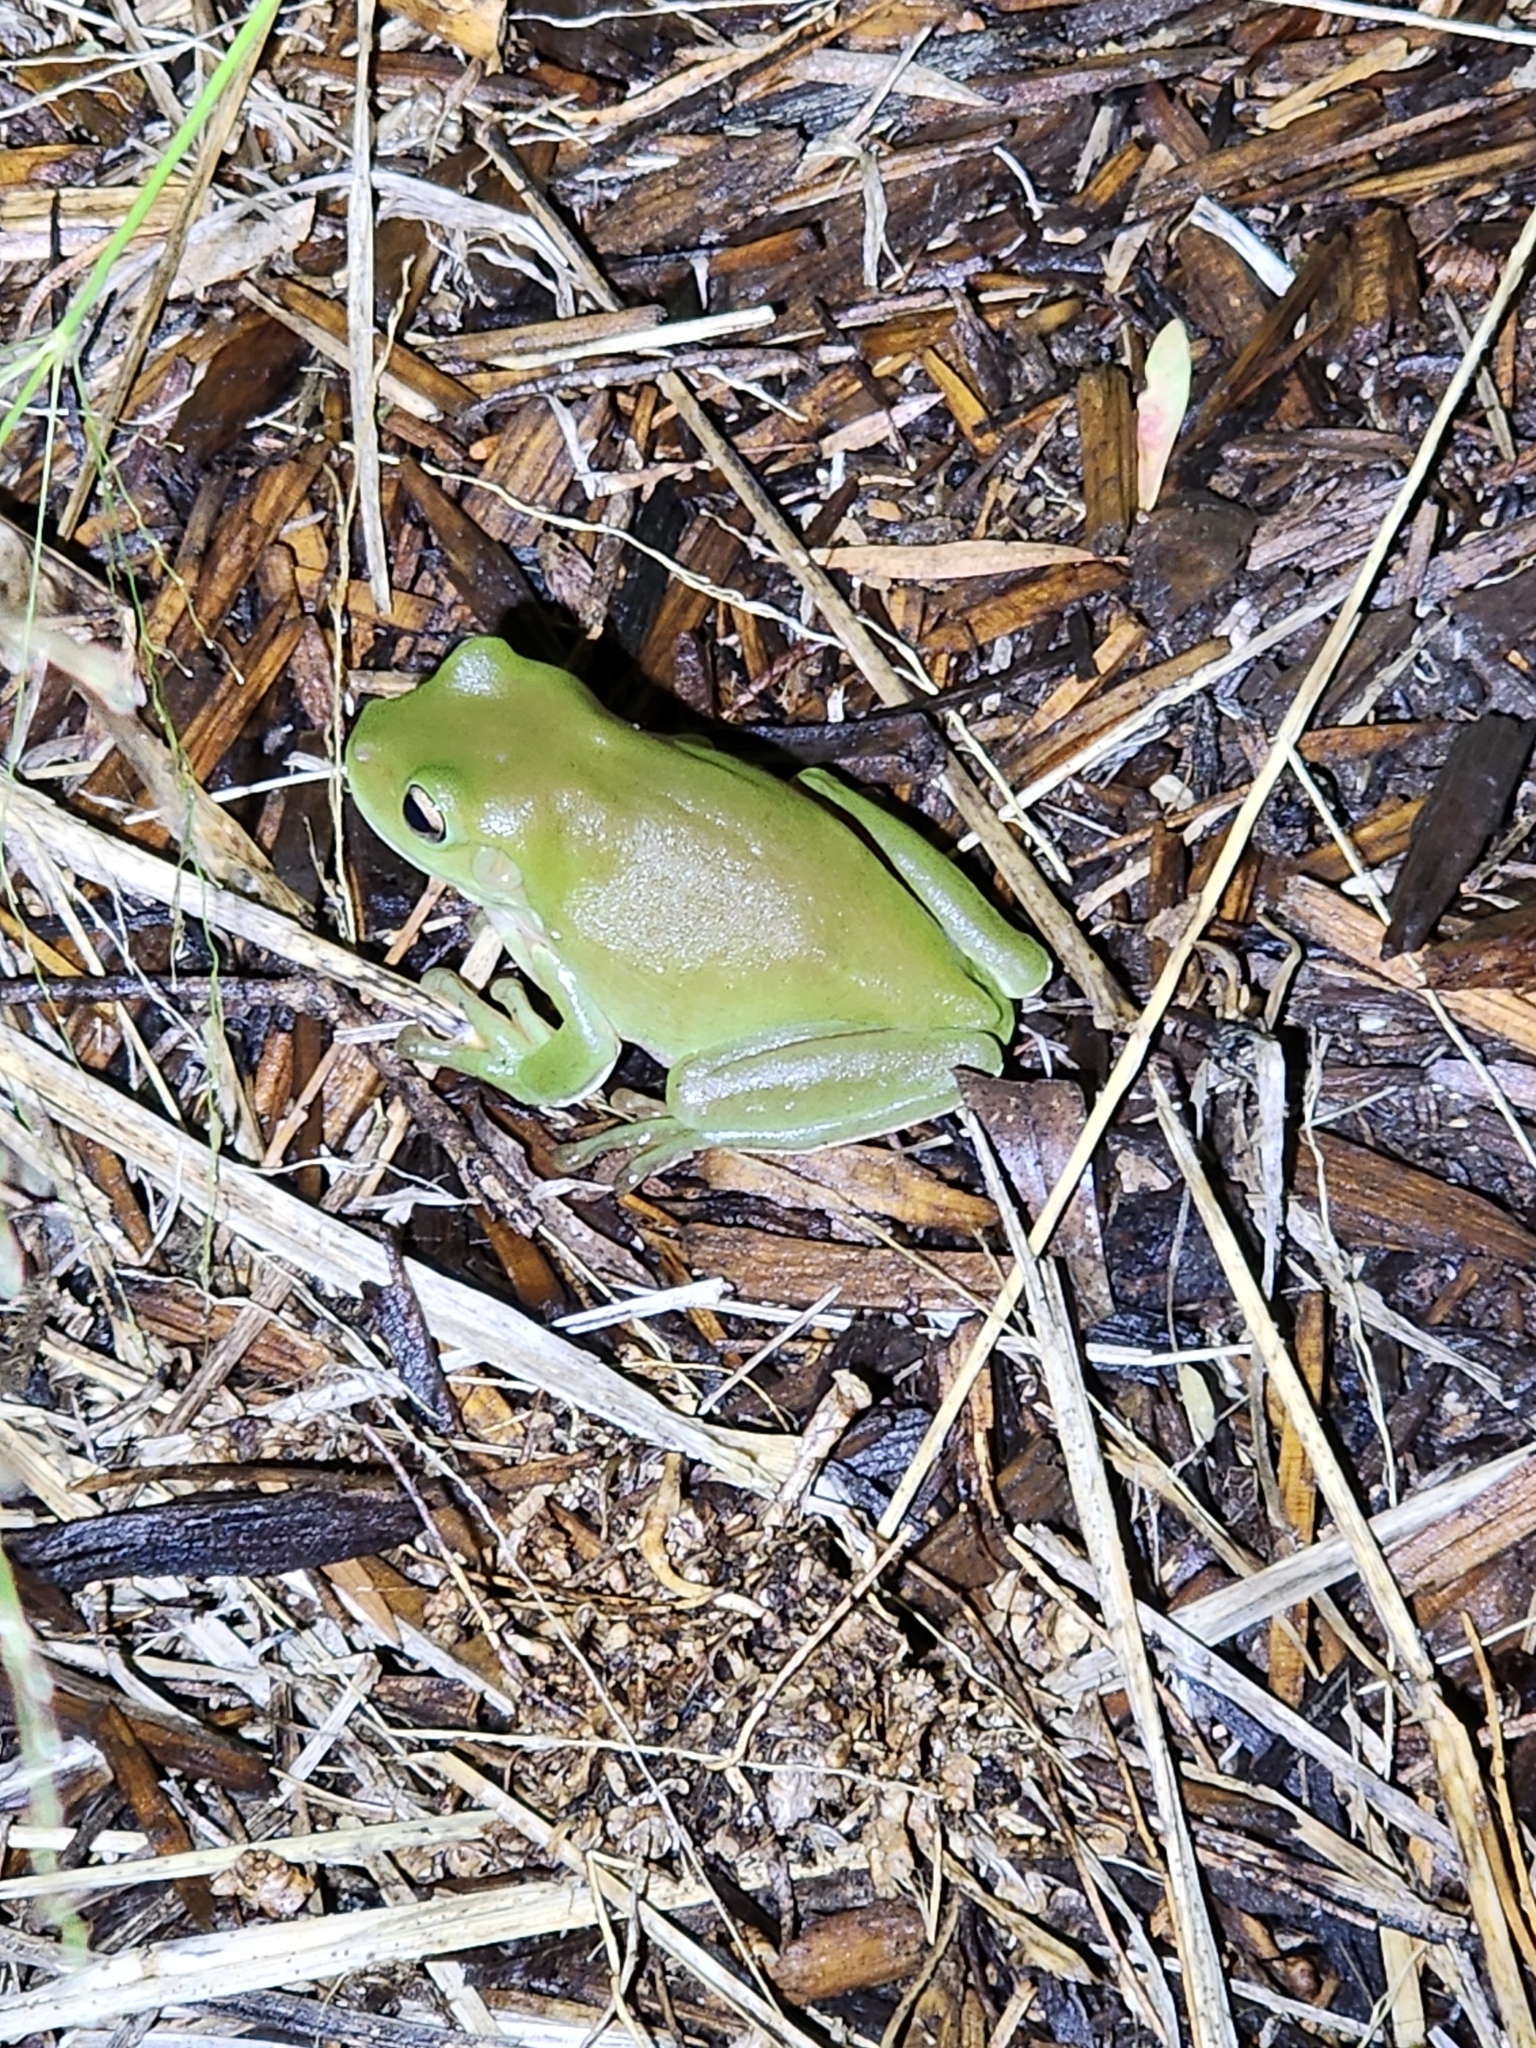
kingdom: Animalia
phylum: Chordata
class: Amphibia
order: Anura
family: Pelodryadidae
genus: Ranoidea
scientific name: Ranoidea caerulea
